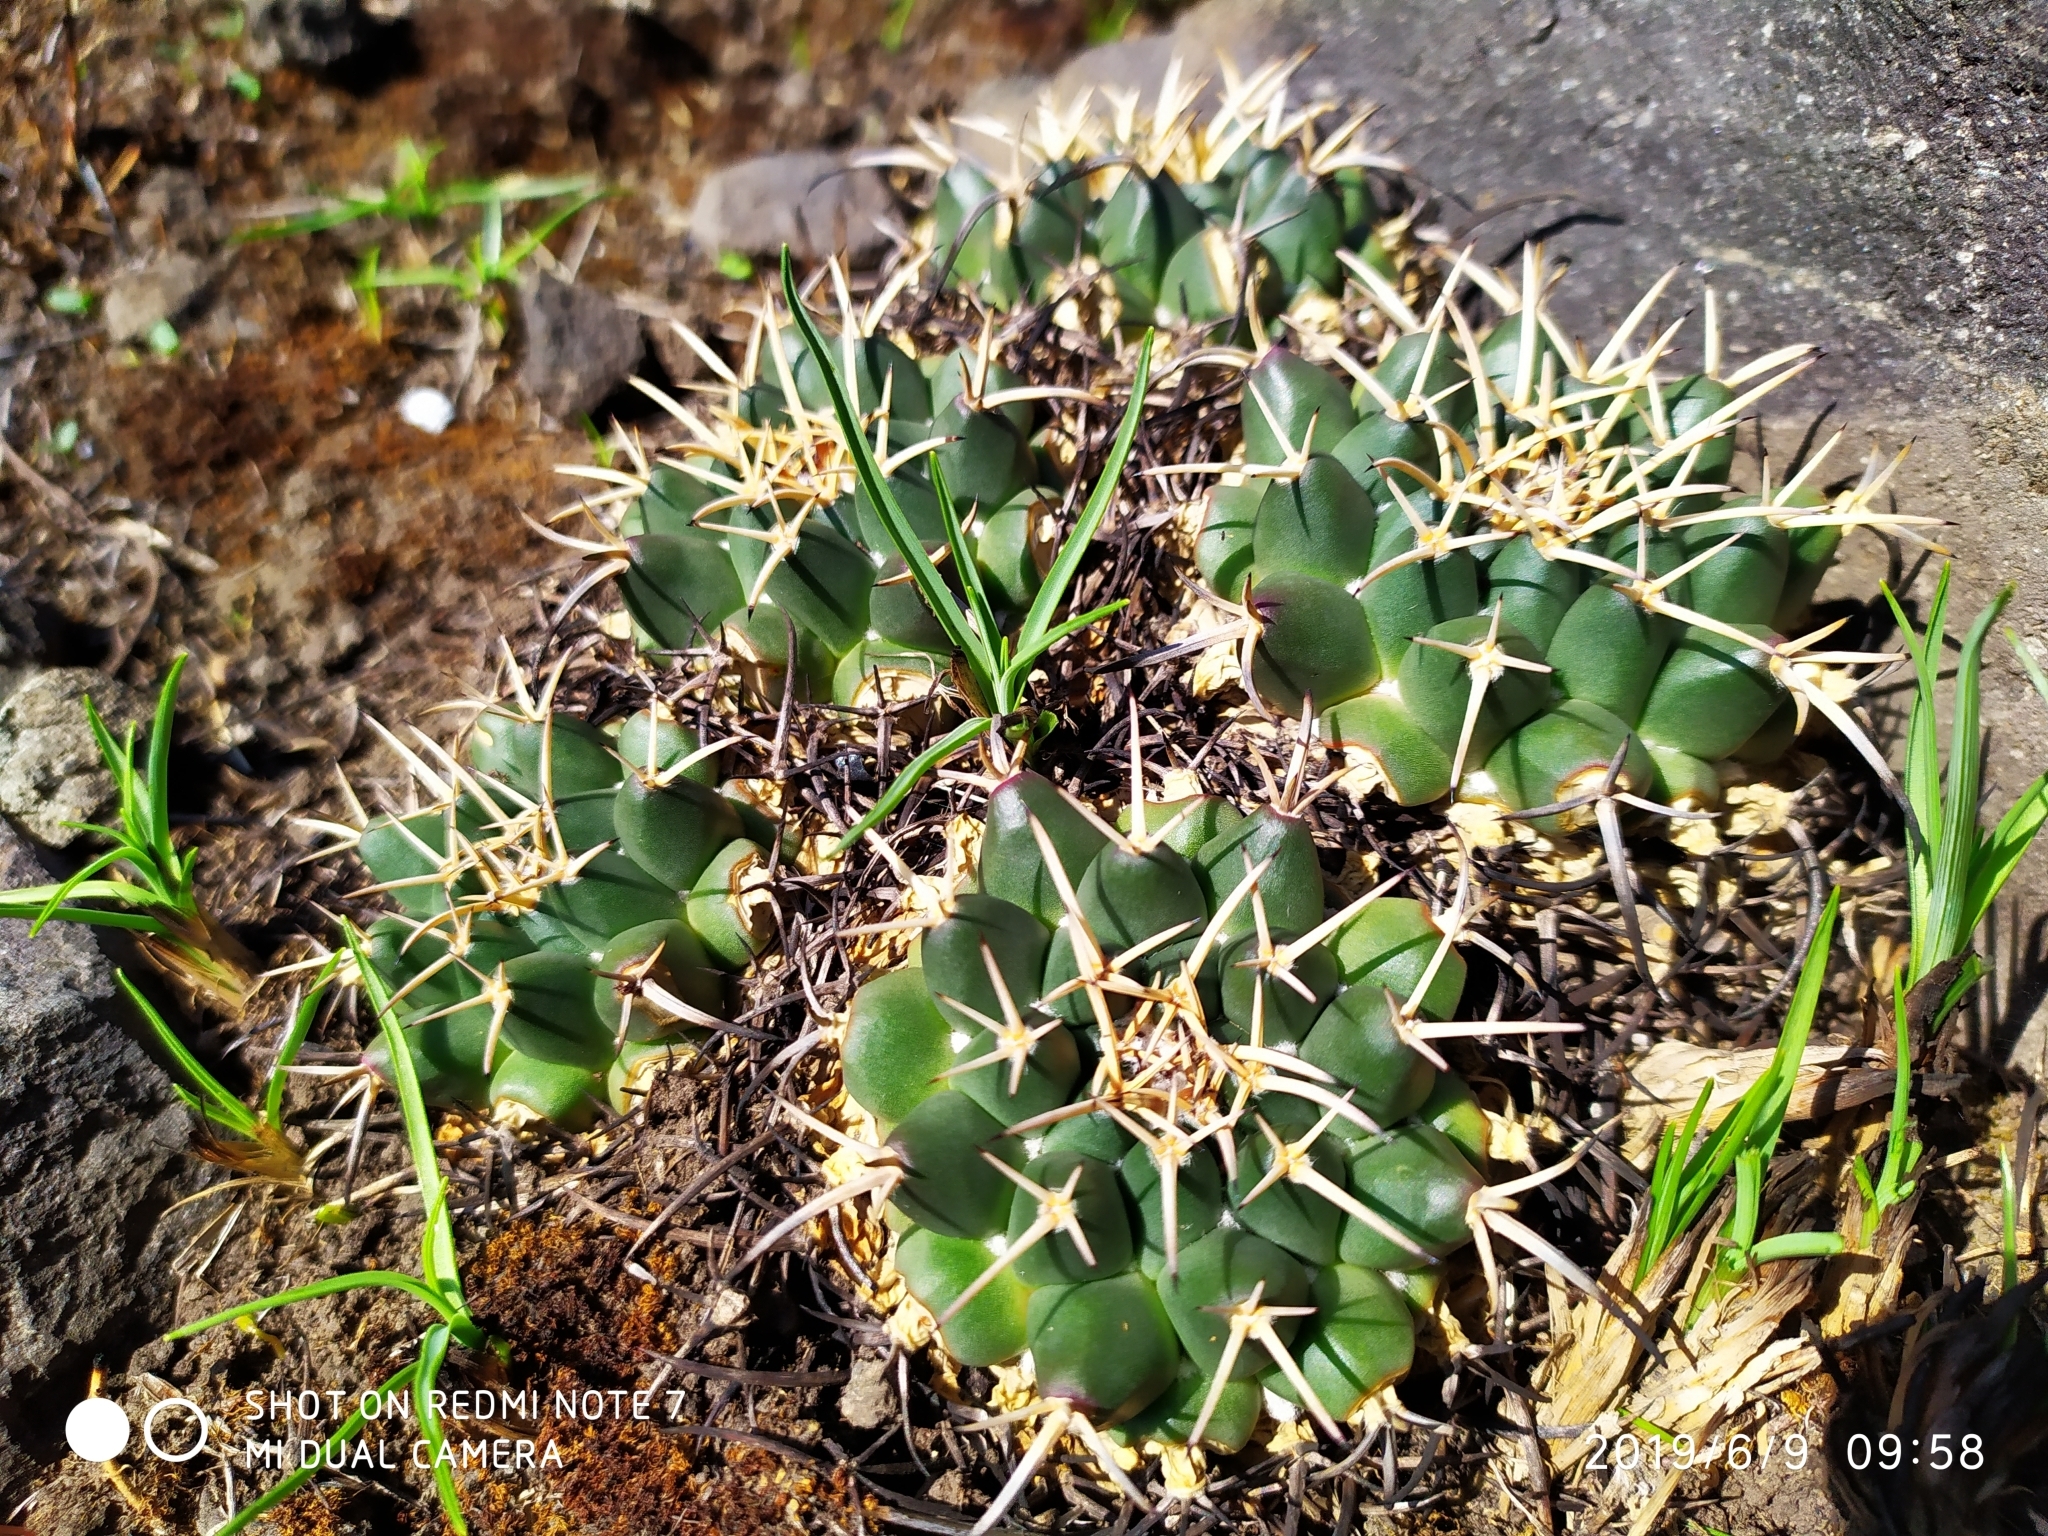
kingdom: Plantae
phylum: Tracheophyta
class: Magnoliopsida
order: Caryophyllales
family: Cactaceae
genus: Mammillaria
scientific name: Mammillaria magnimamma
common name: Mexican pincushion
